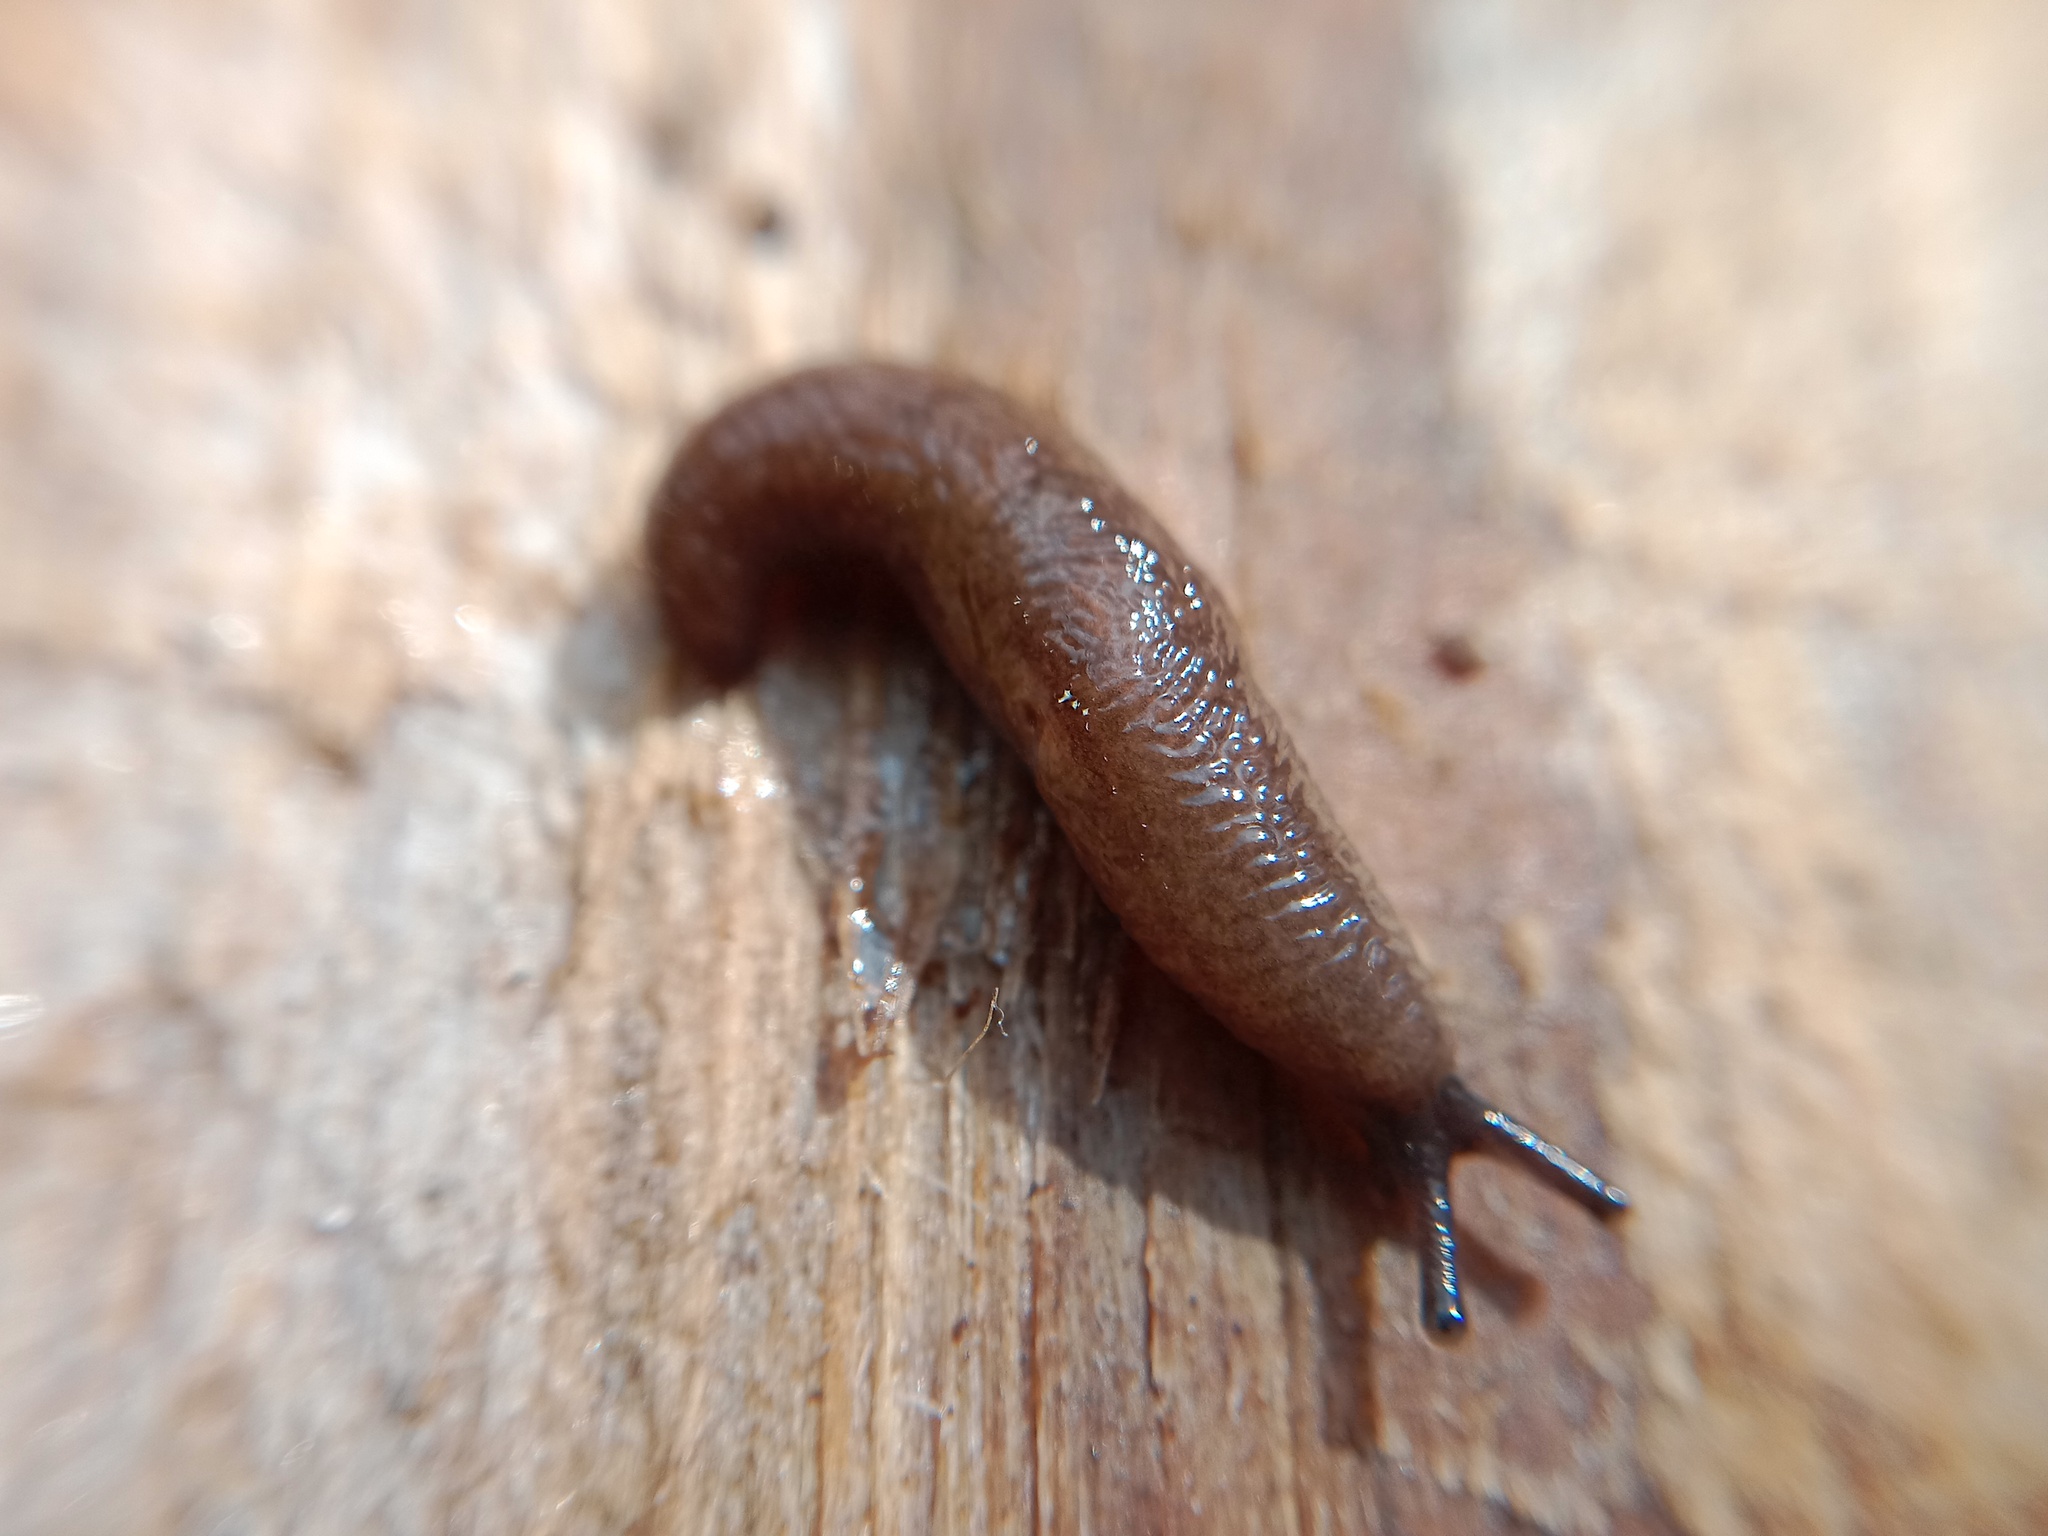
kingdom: Animalia
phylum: Mollusca
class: Gastropoda
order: Stylommatophora
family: Agriolimacidae
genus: Deroceras
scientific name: Deroceras laeve
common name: Marsh slug
